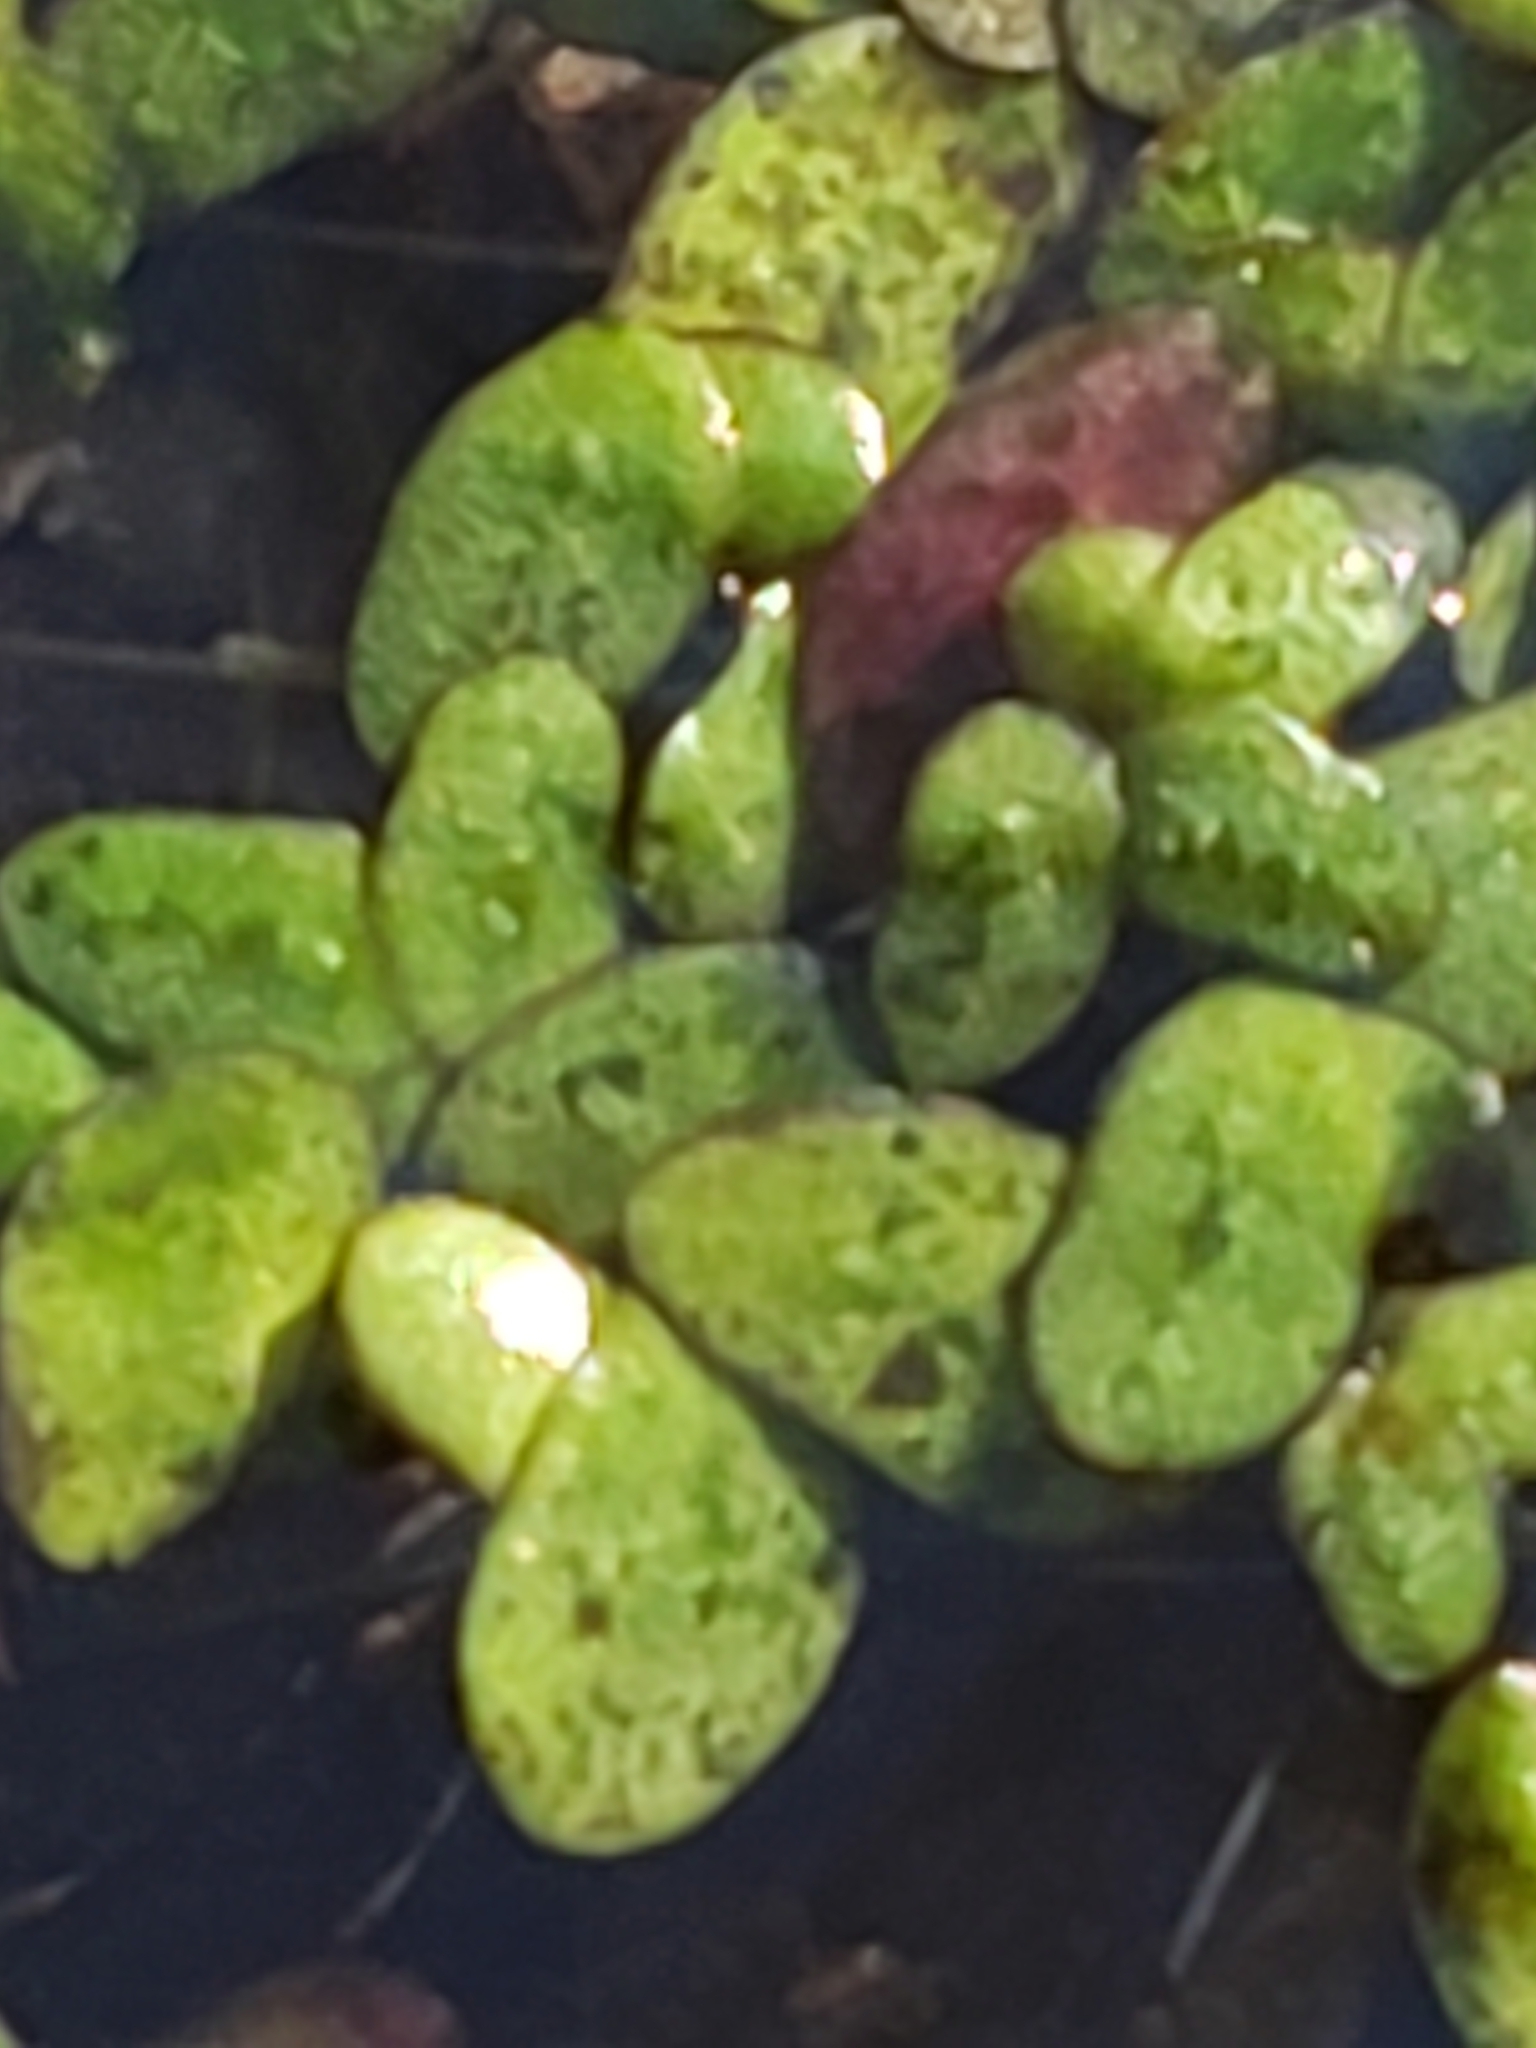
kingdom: Plantae
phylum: Tracheophyta
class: Liliopsida
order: Alismatales
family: Araceae
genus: Spirodela
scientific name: Spirodela punctata
